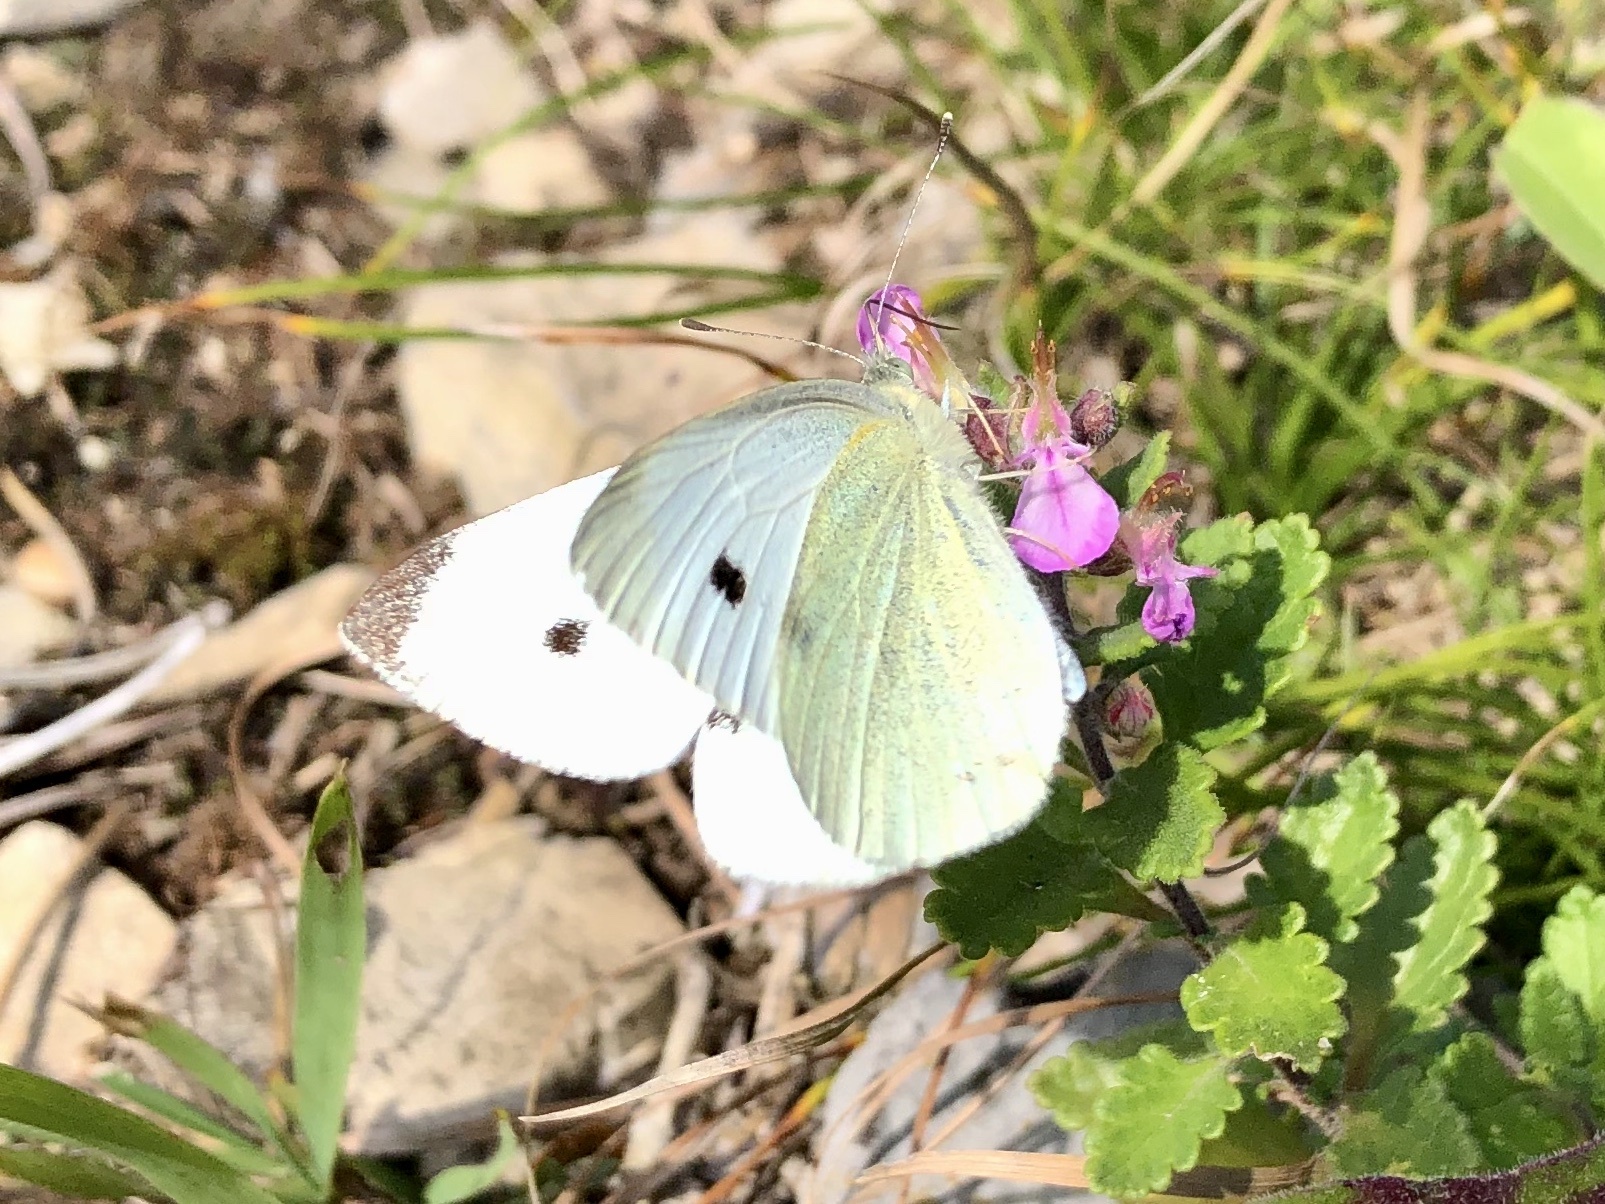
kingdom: Animalia
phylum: Arthropoda
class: Insecta
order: Lepidoptera
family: Pieridae
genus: Pieris
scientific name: Pieris rapae
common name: Small white
